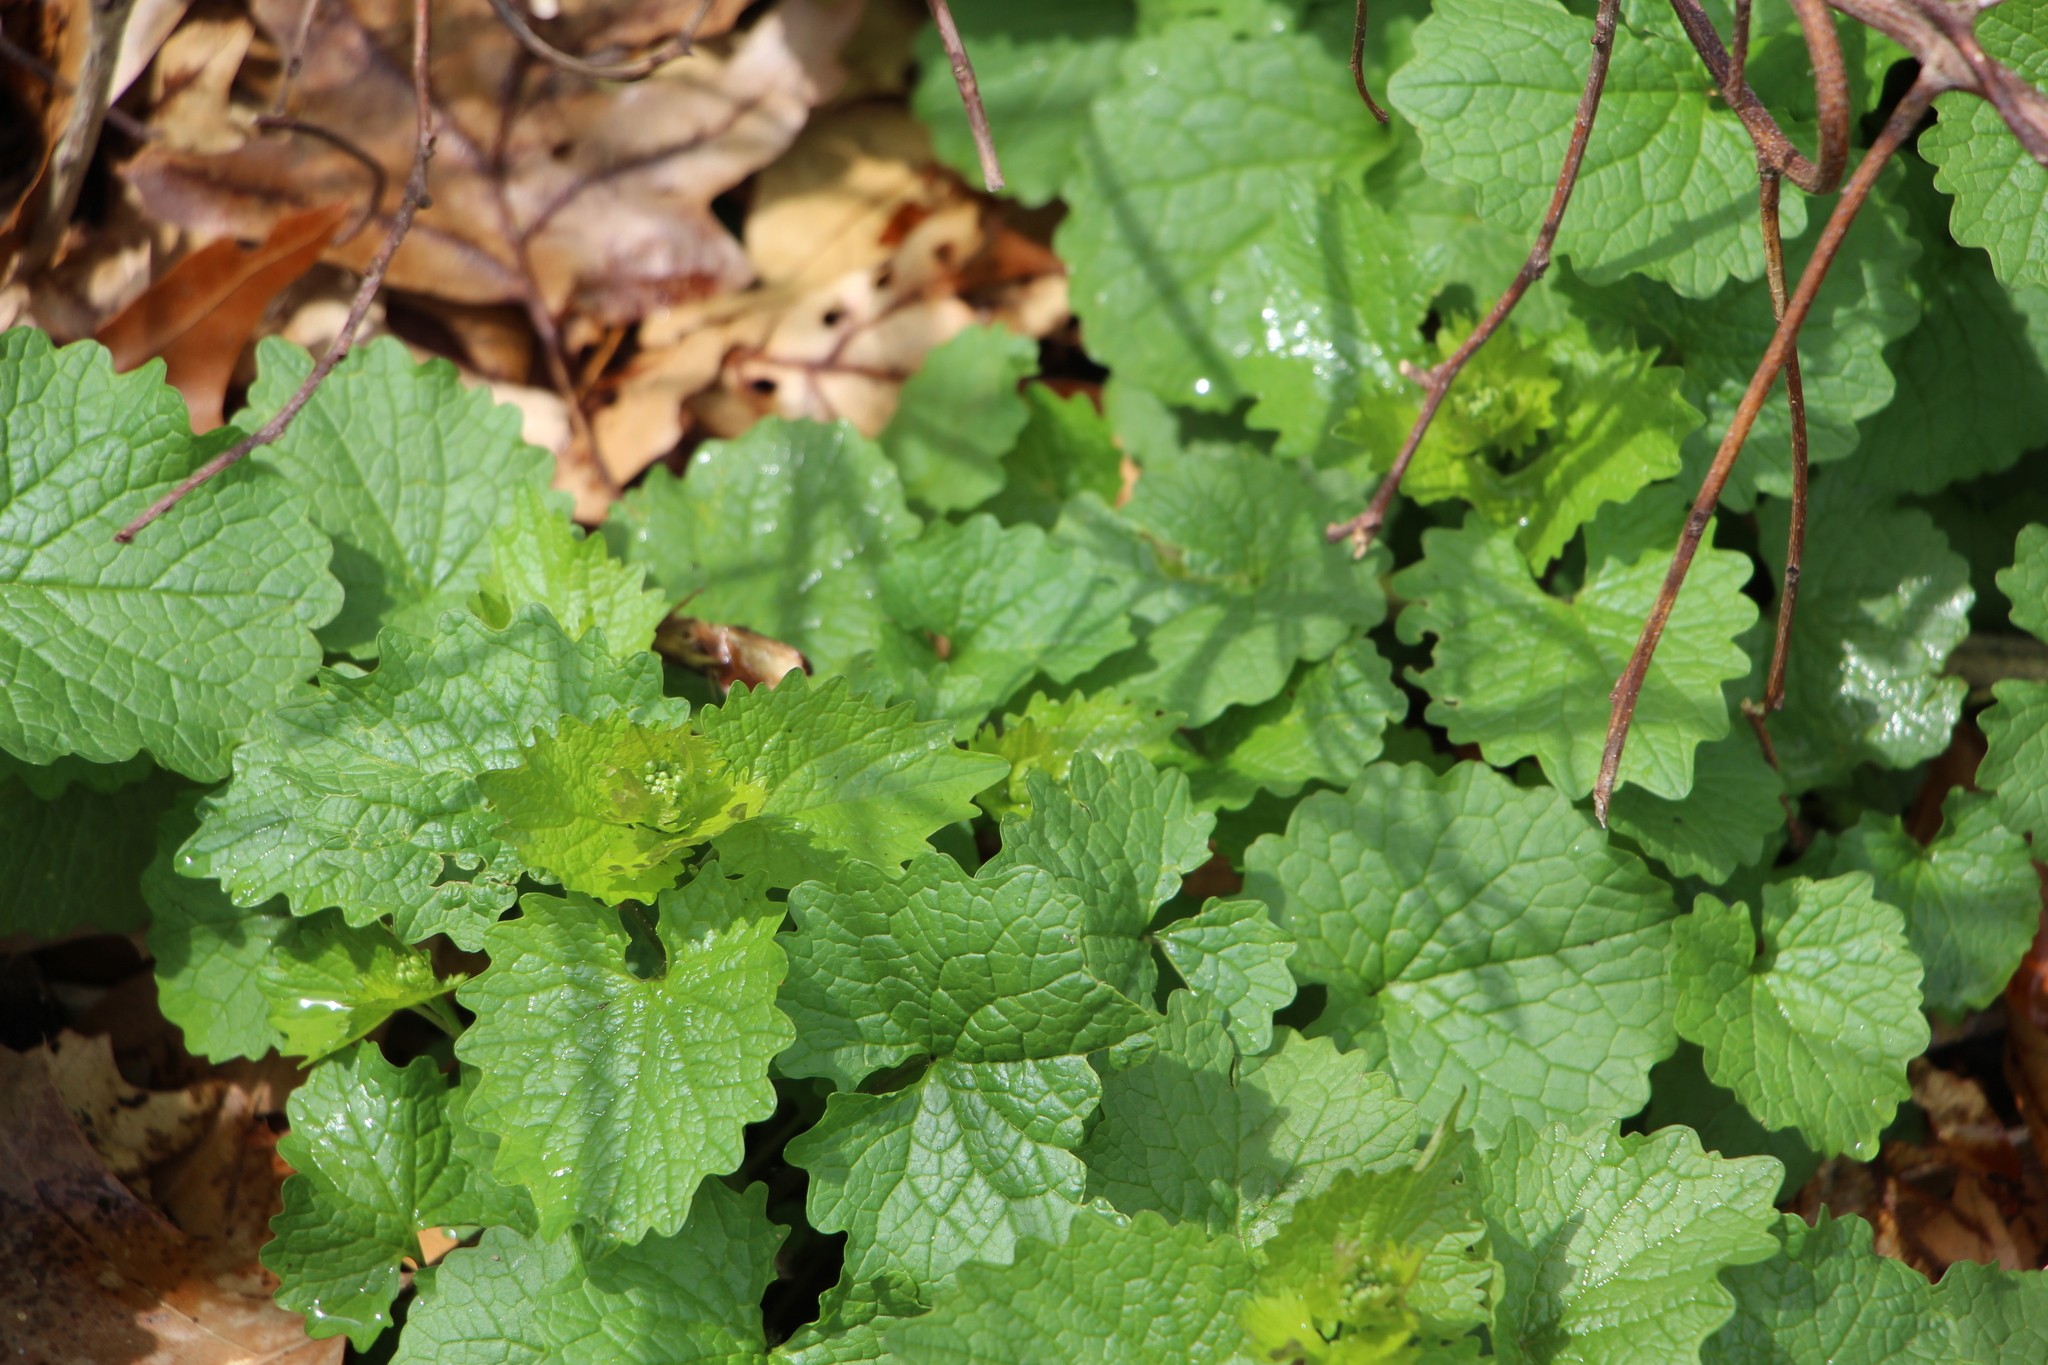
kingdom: Plantae
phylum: Tracheophyta
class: Magnoliopsida
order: Brassicales
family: Brassicaceae
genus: Alliaria
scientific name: Alliaria petiolata
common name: Garlic mustard
